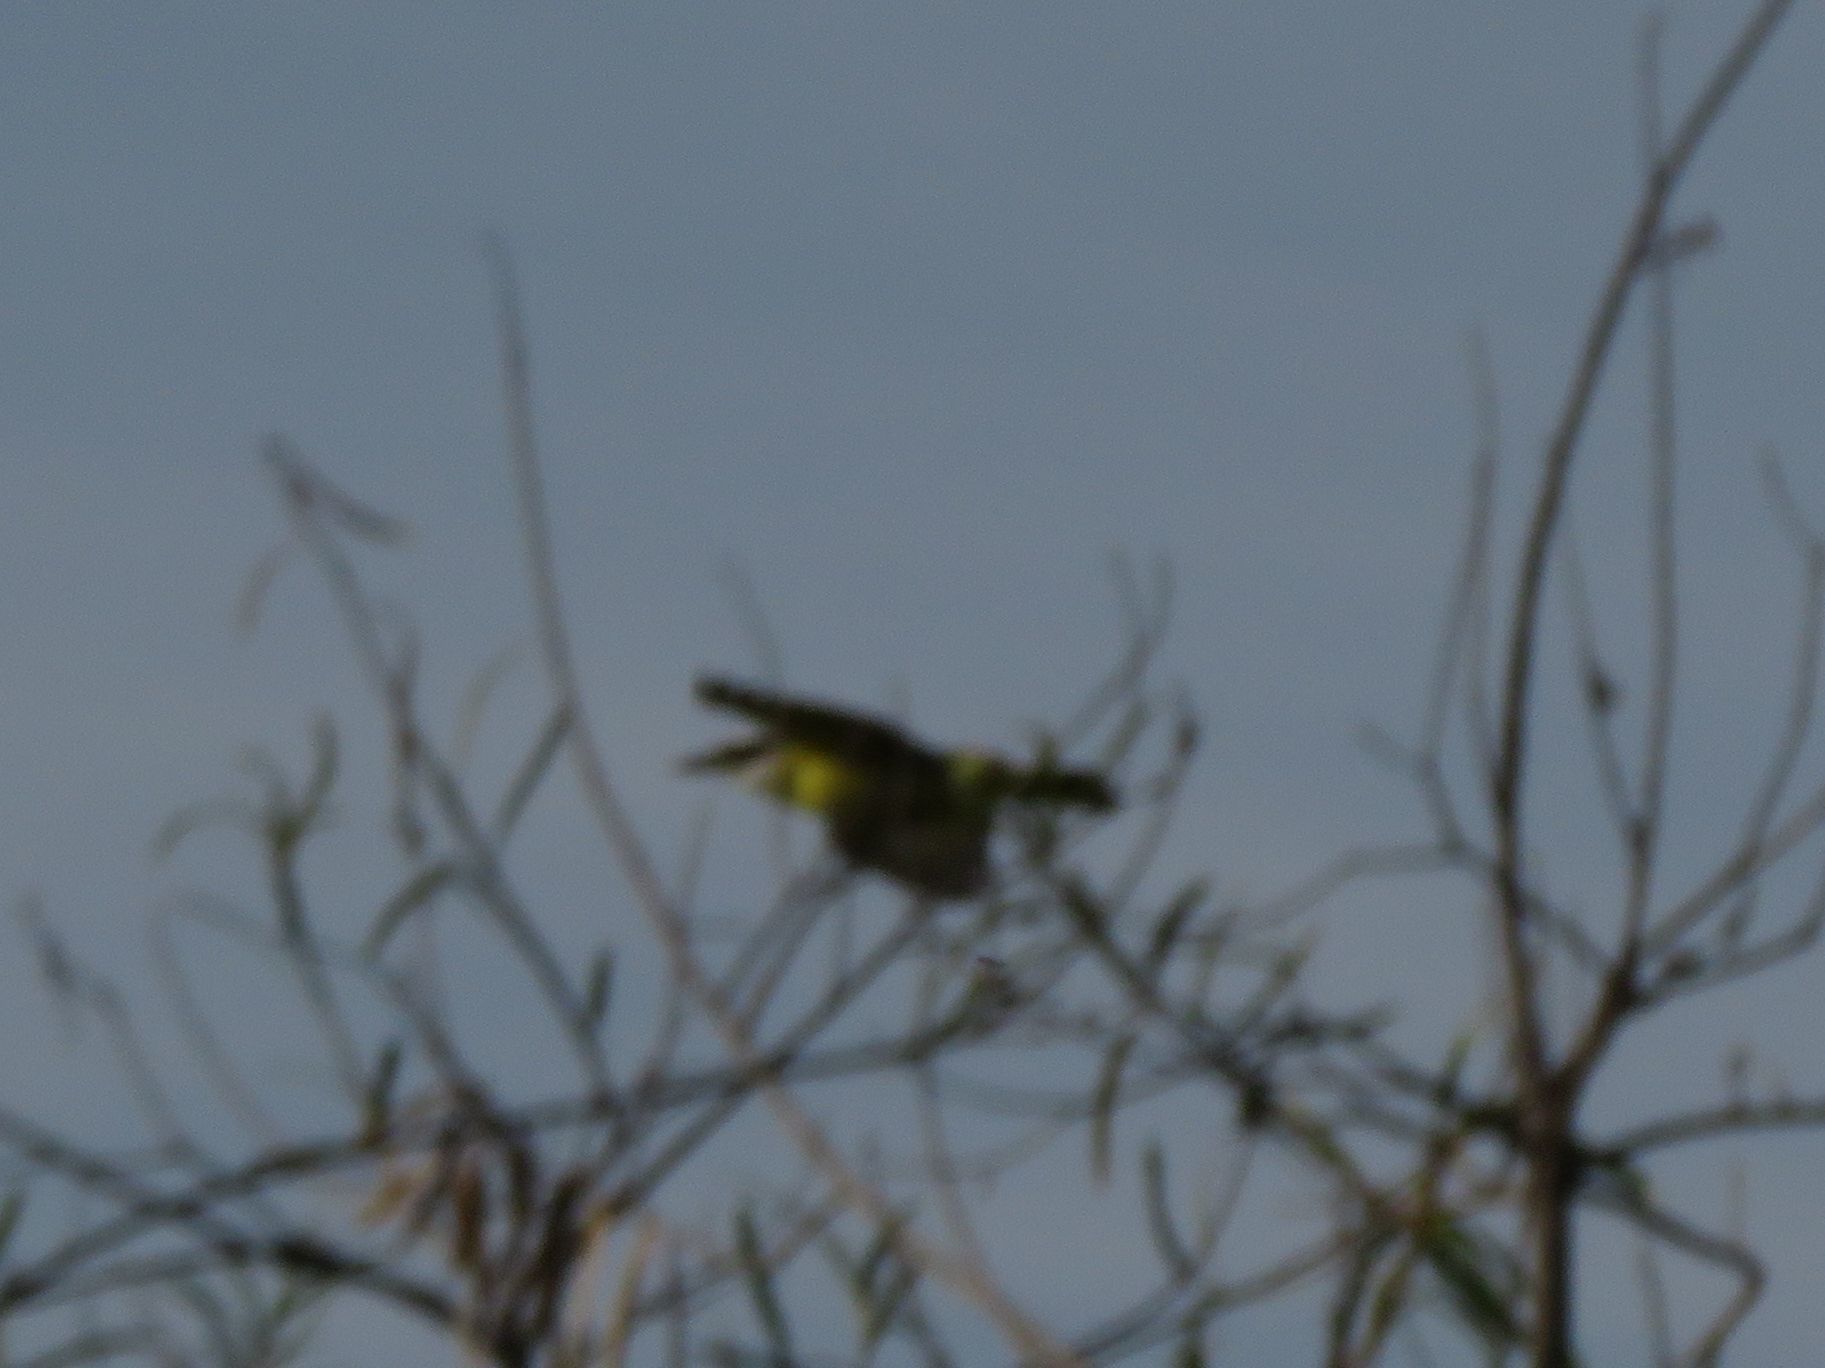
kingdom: Animalia
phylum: Chordata
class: Aves
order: Passeriformes
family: Tyrannidae
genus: Pitangus
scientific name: Pitangus sulphuratus
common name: Great kiskadee
